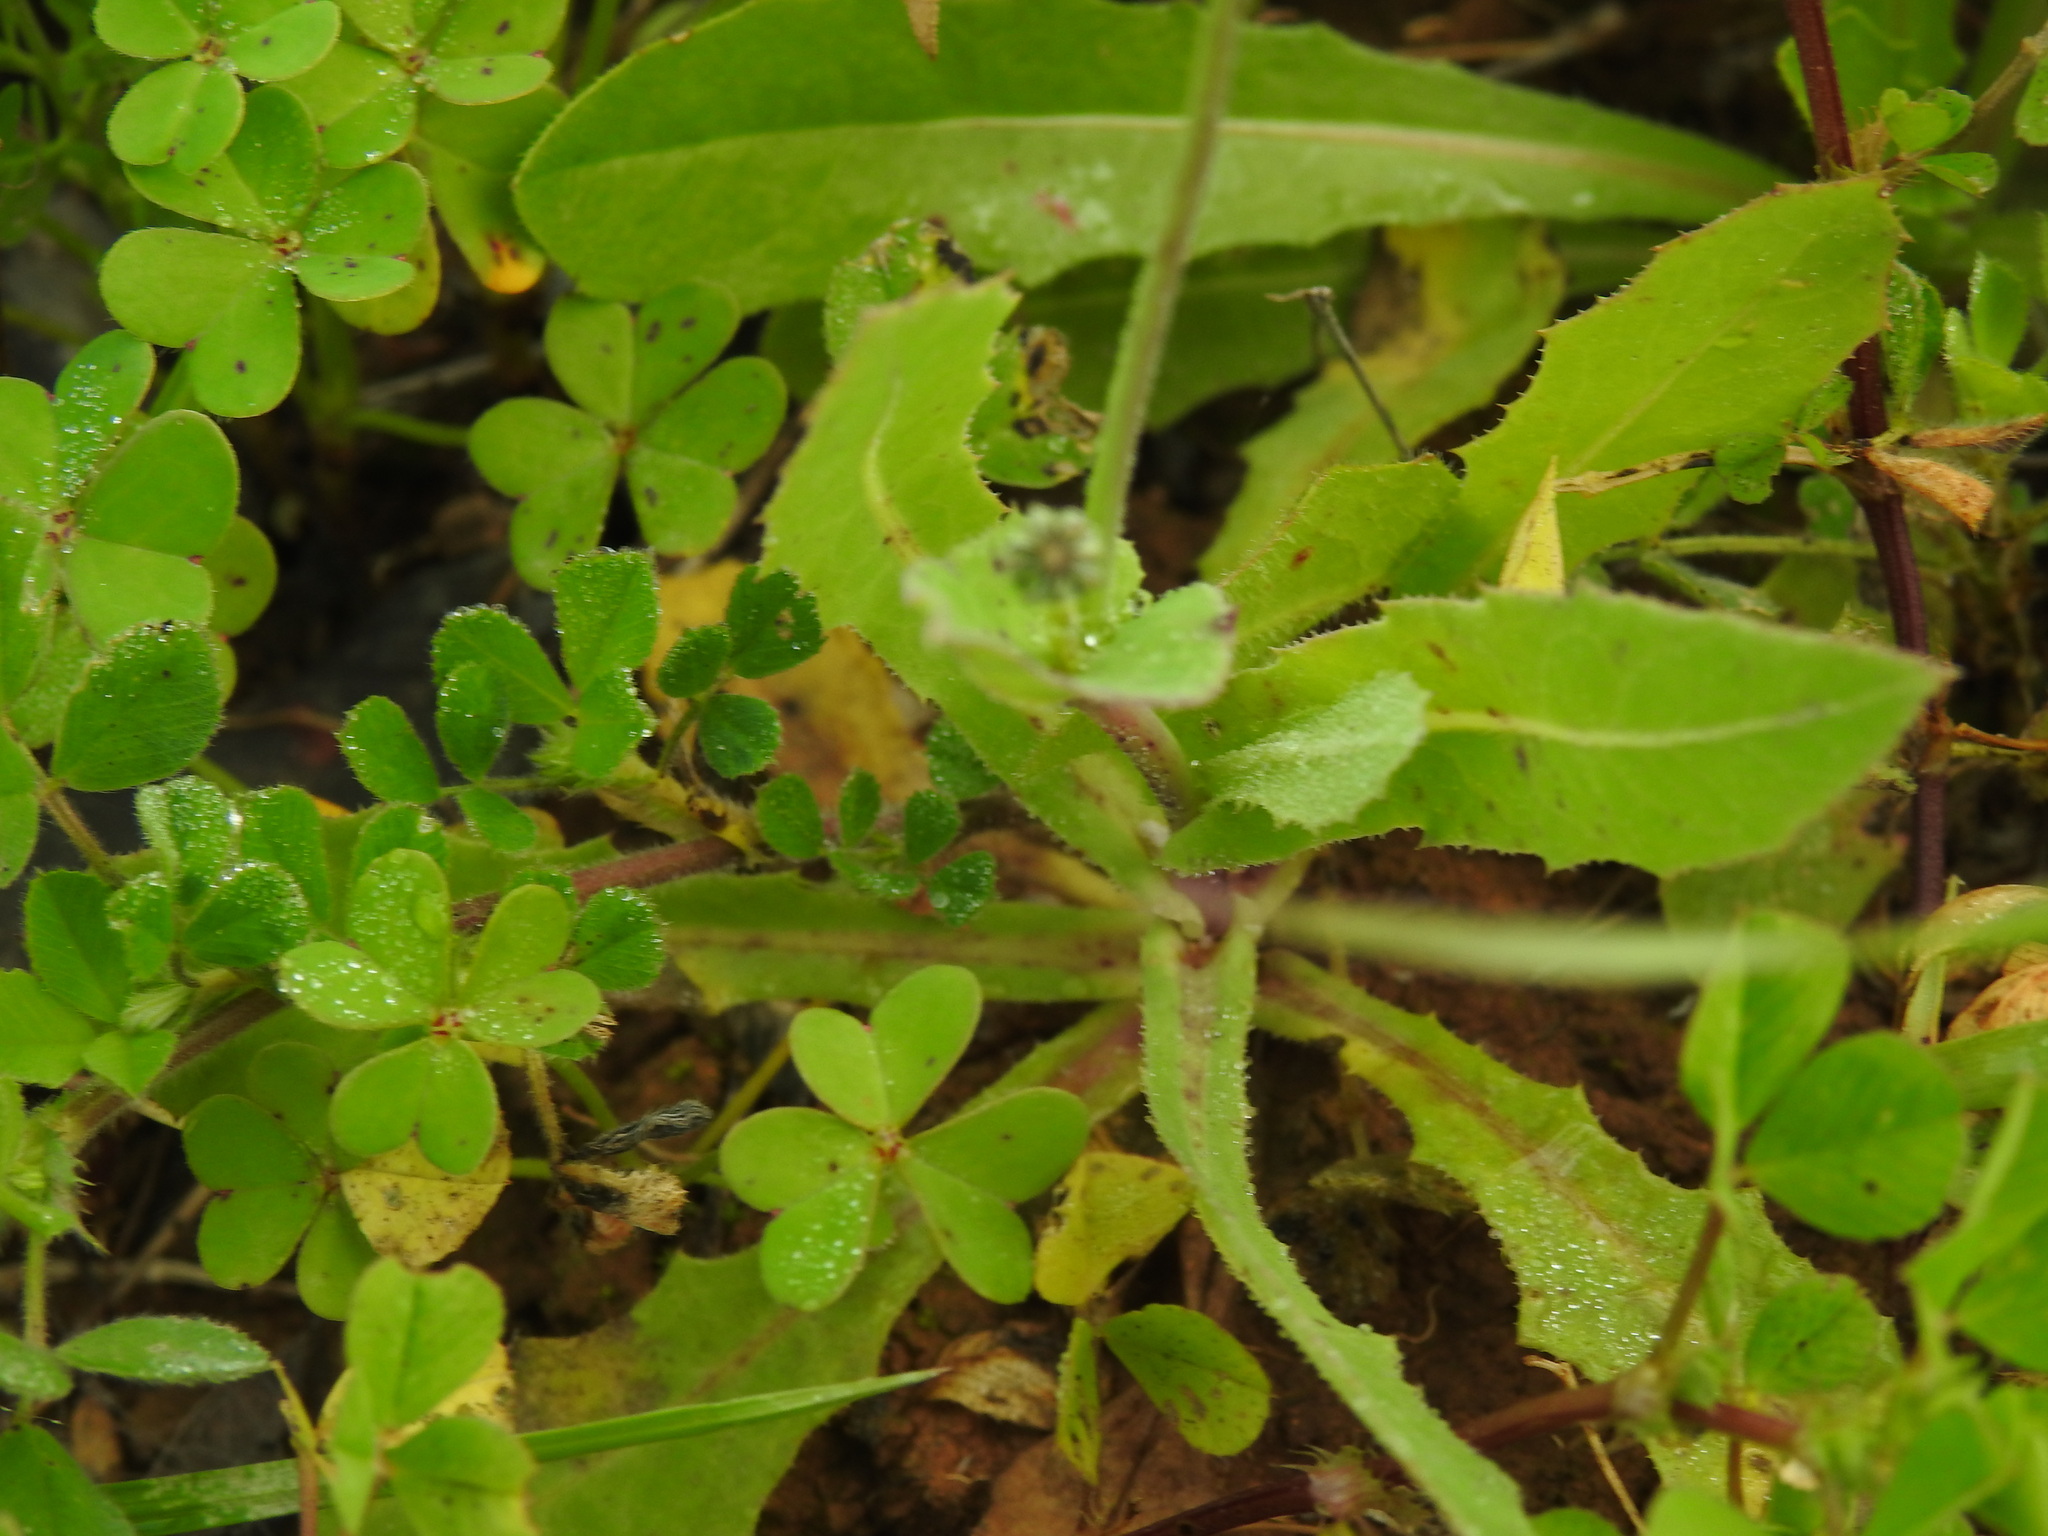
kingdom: Plantae
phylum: Tracheophyta
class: Magnoliopsida
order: Asterales
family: Asteraceae
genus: Reichardia
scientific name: Reichardia intermedia
